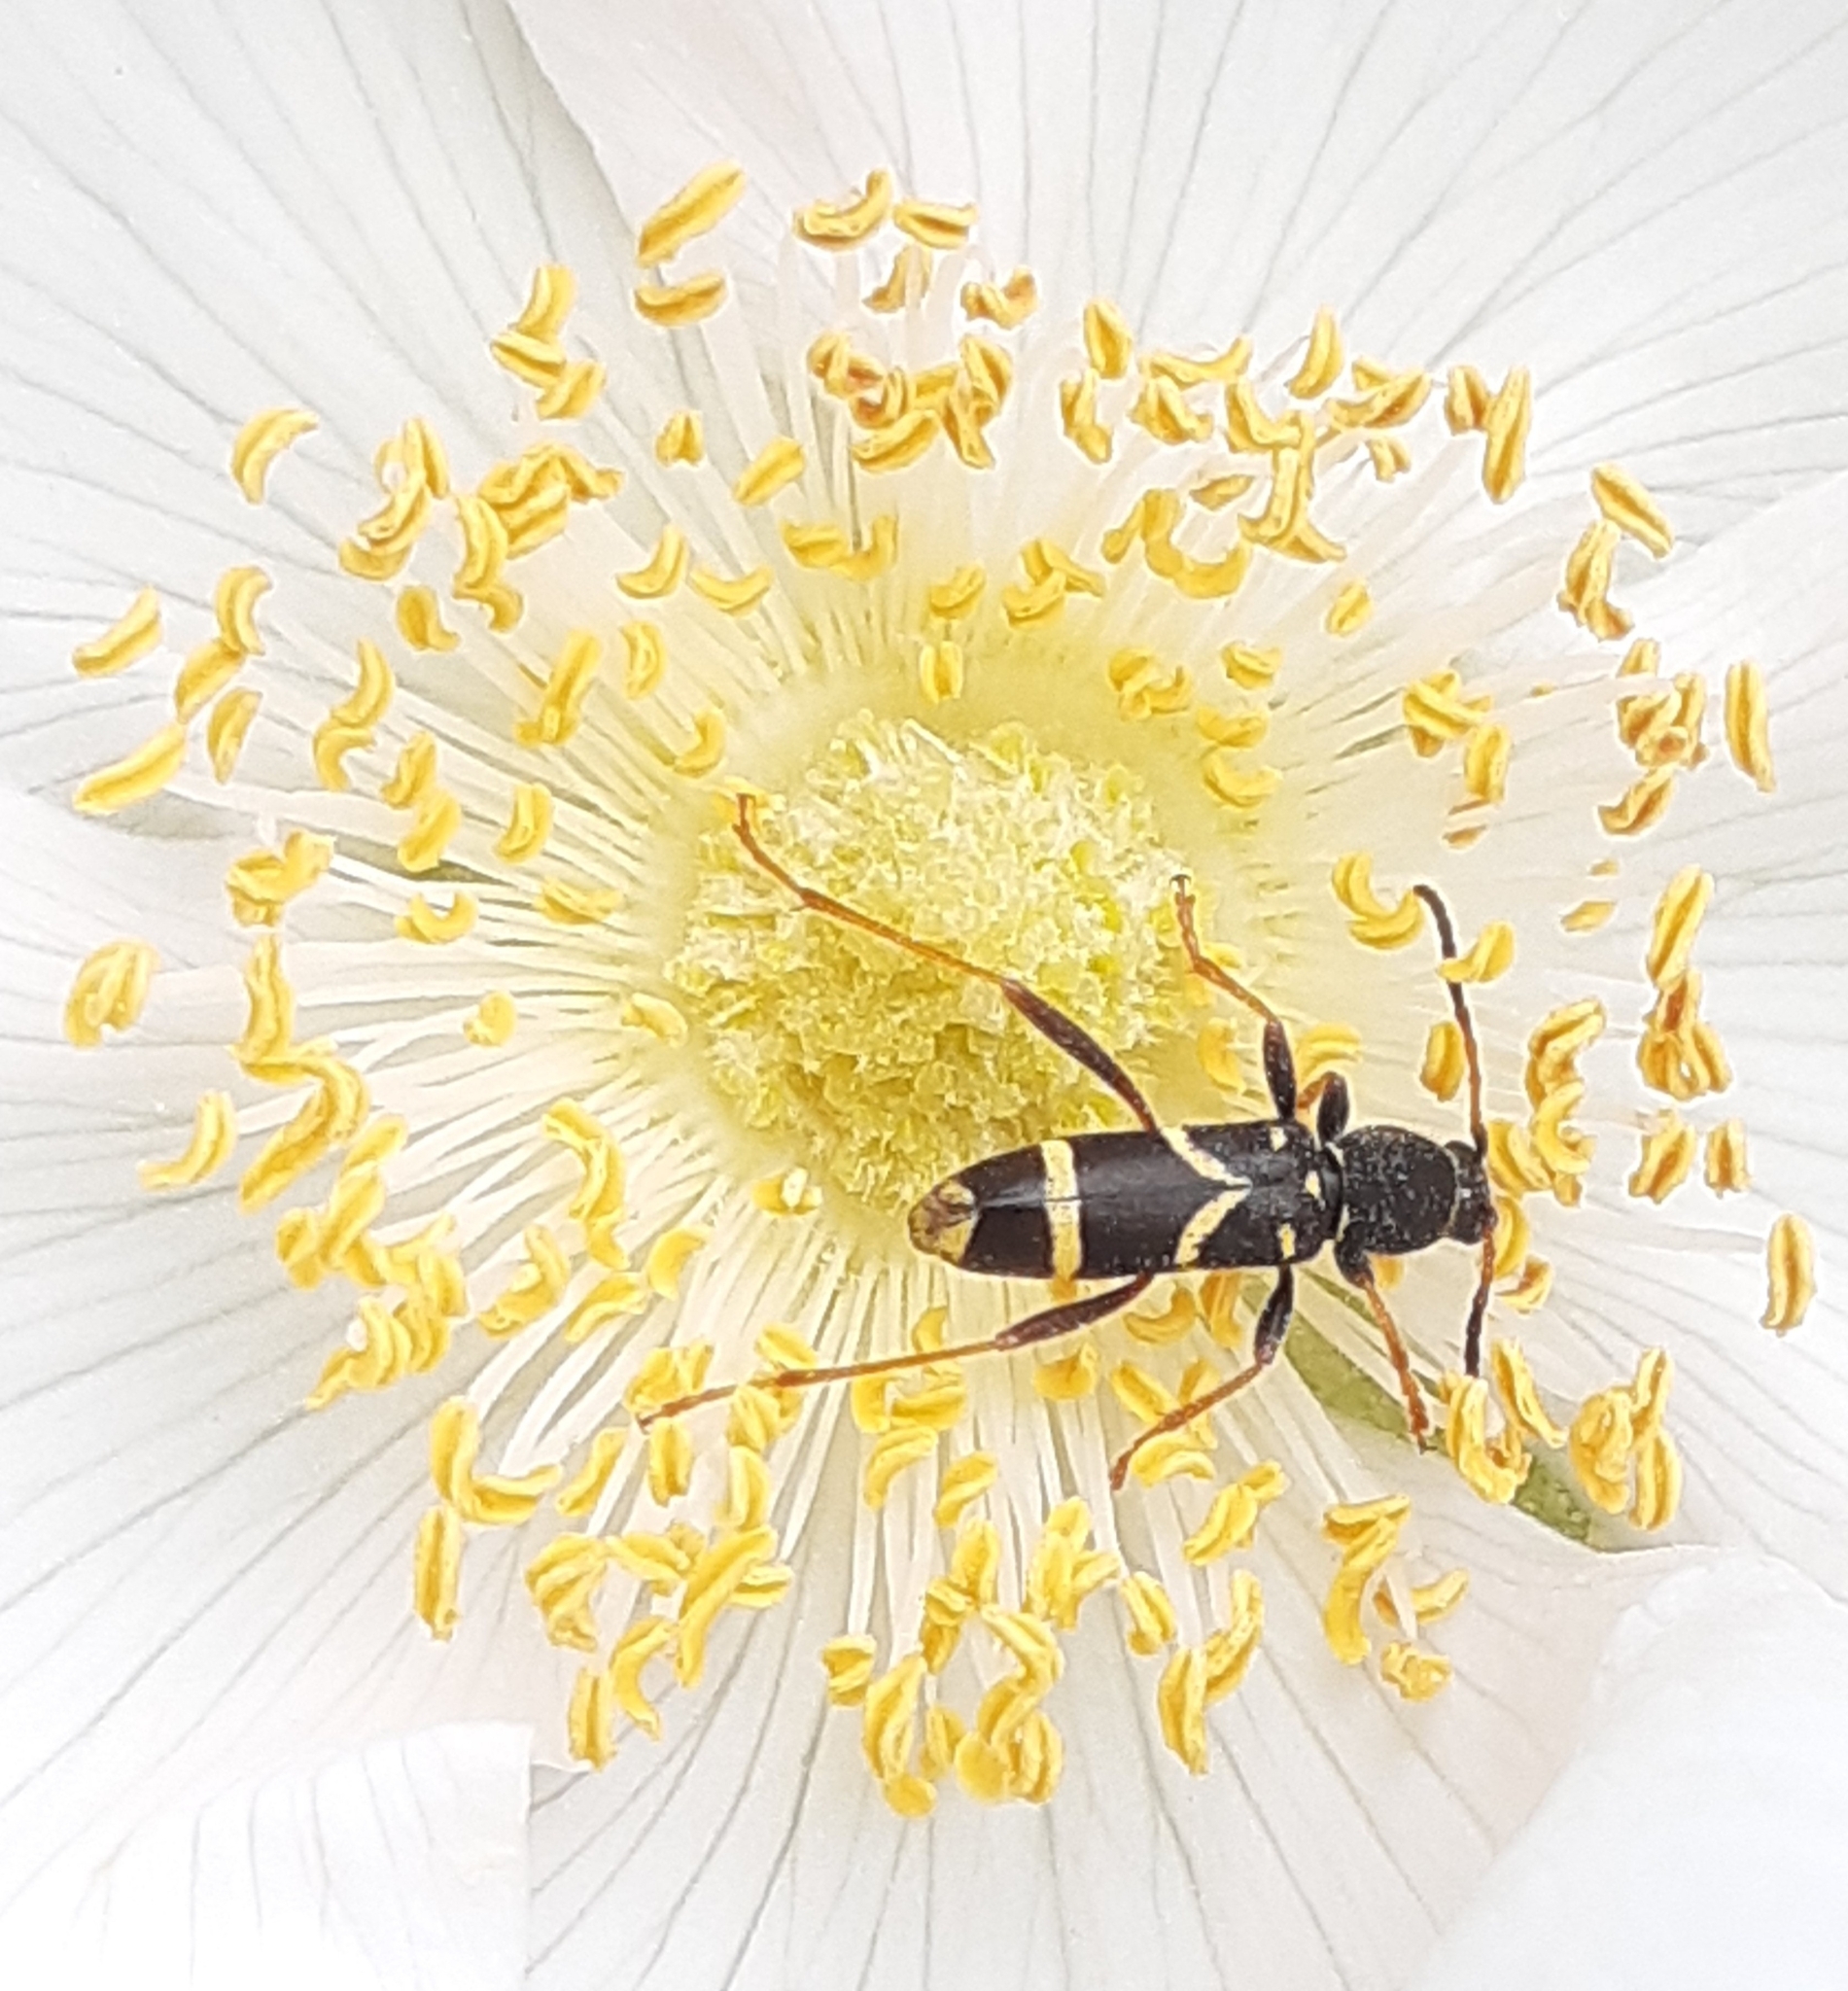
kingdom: Animalia
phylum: Arthropoda
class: Insecta
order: Coleoptera
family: Cerambycidae
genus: Clytus
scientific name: Clytus arietis
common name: Wasp beetle
